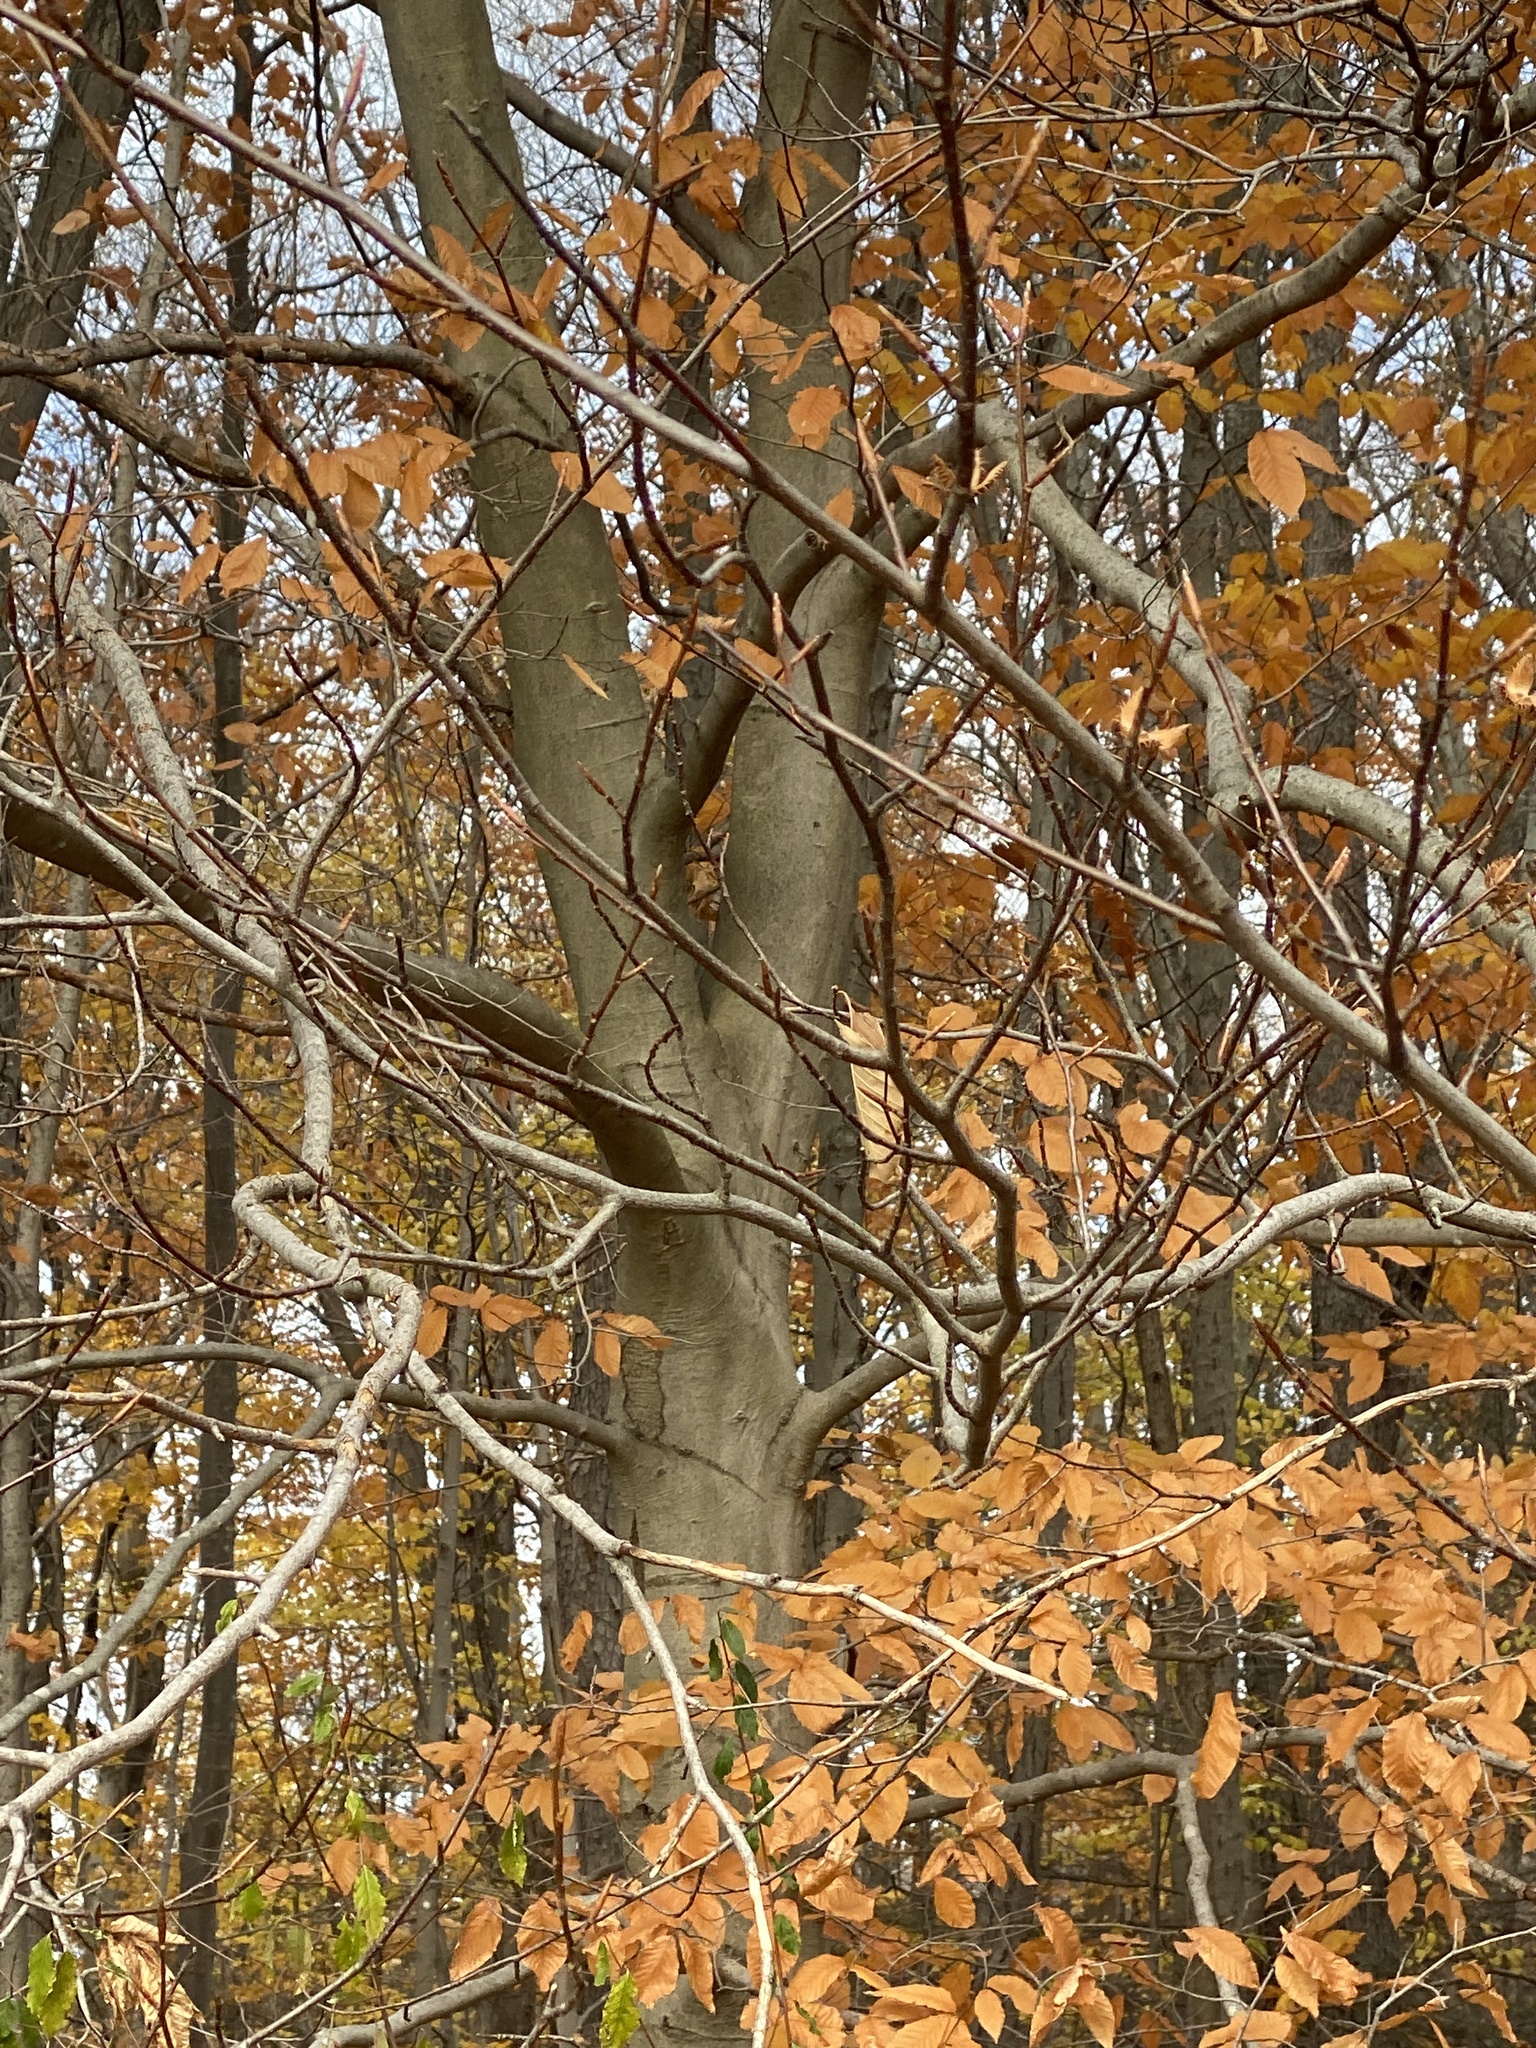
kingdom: Plantae
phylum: Tracheophyta
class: Magnoliopsida
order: Fagales
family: Fagaceae
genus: Fagus
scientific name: Fagus grandifolia
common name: American beech
